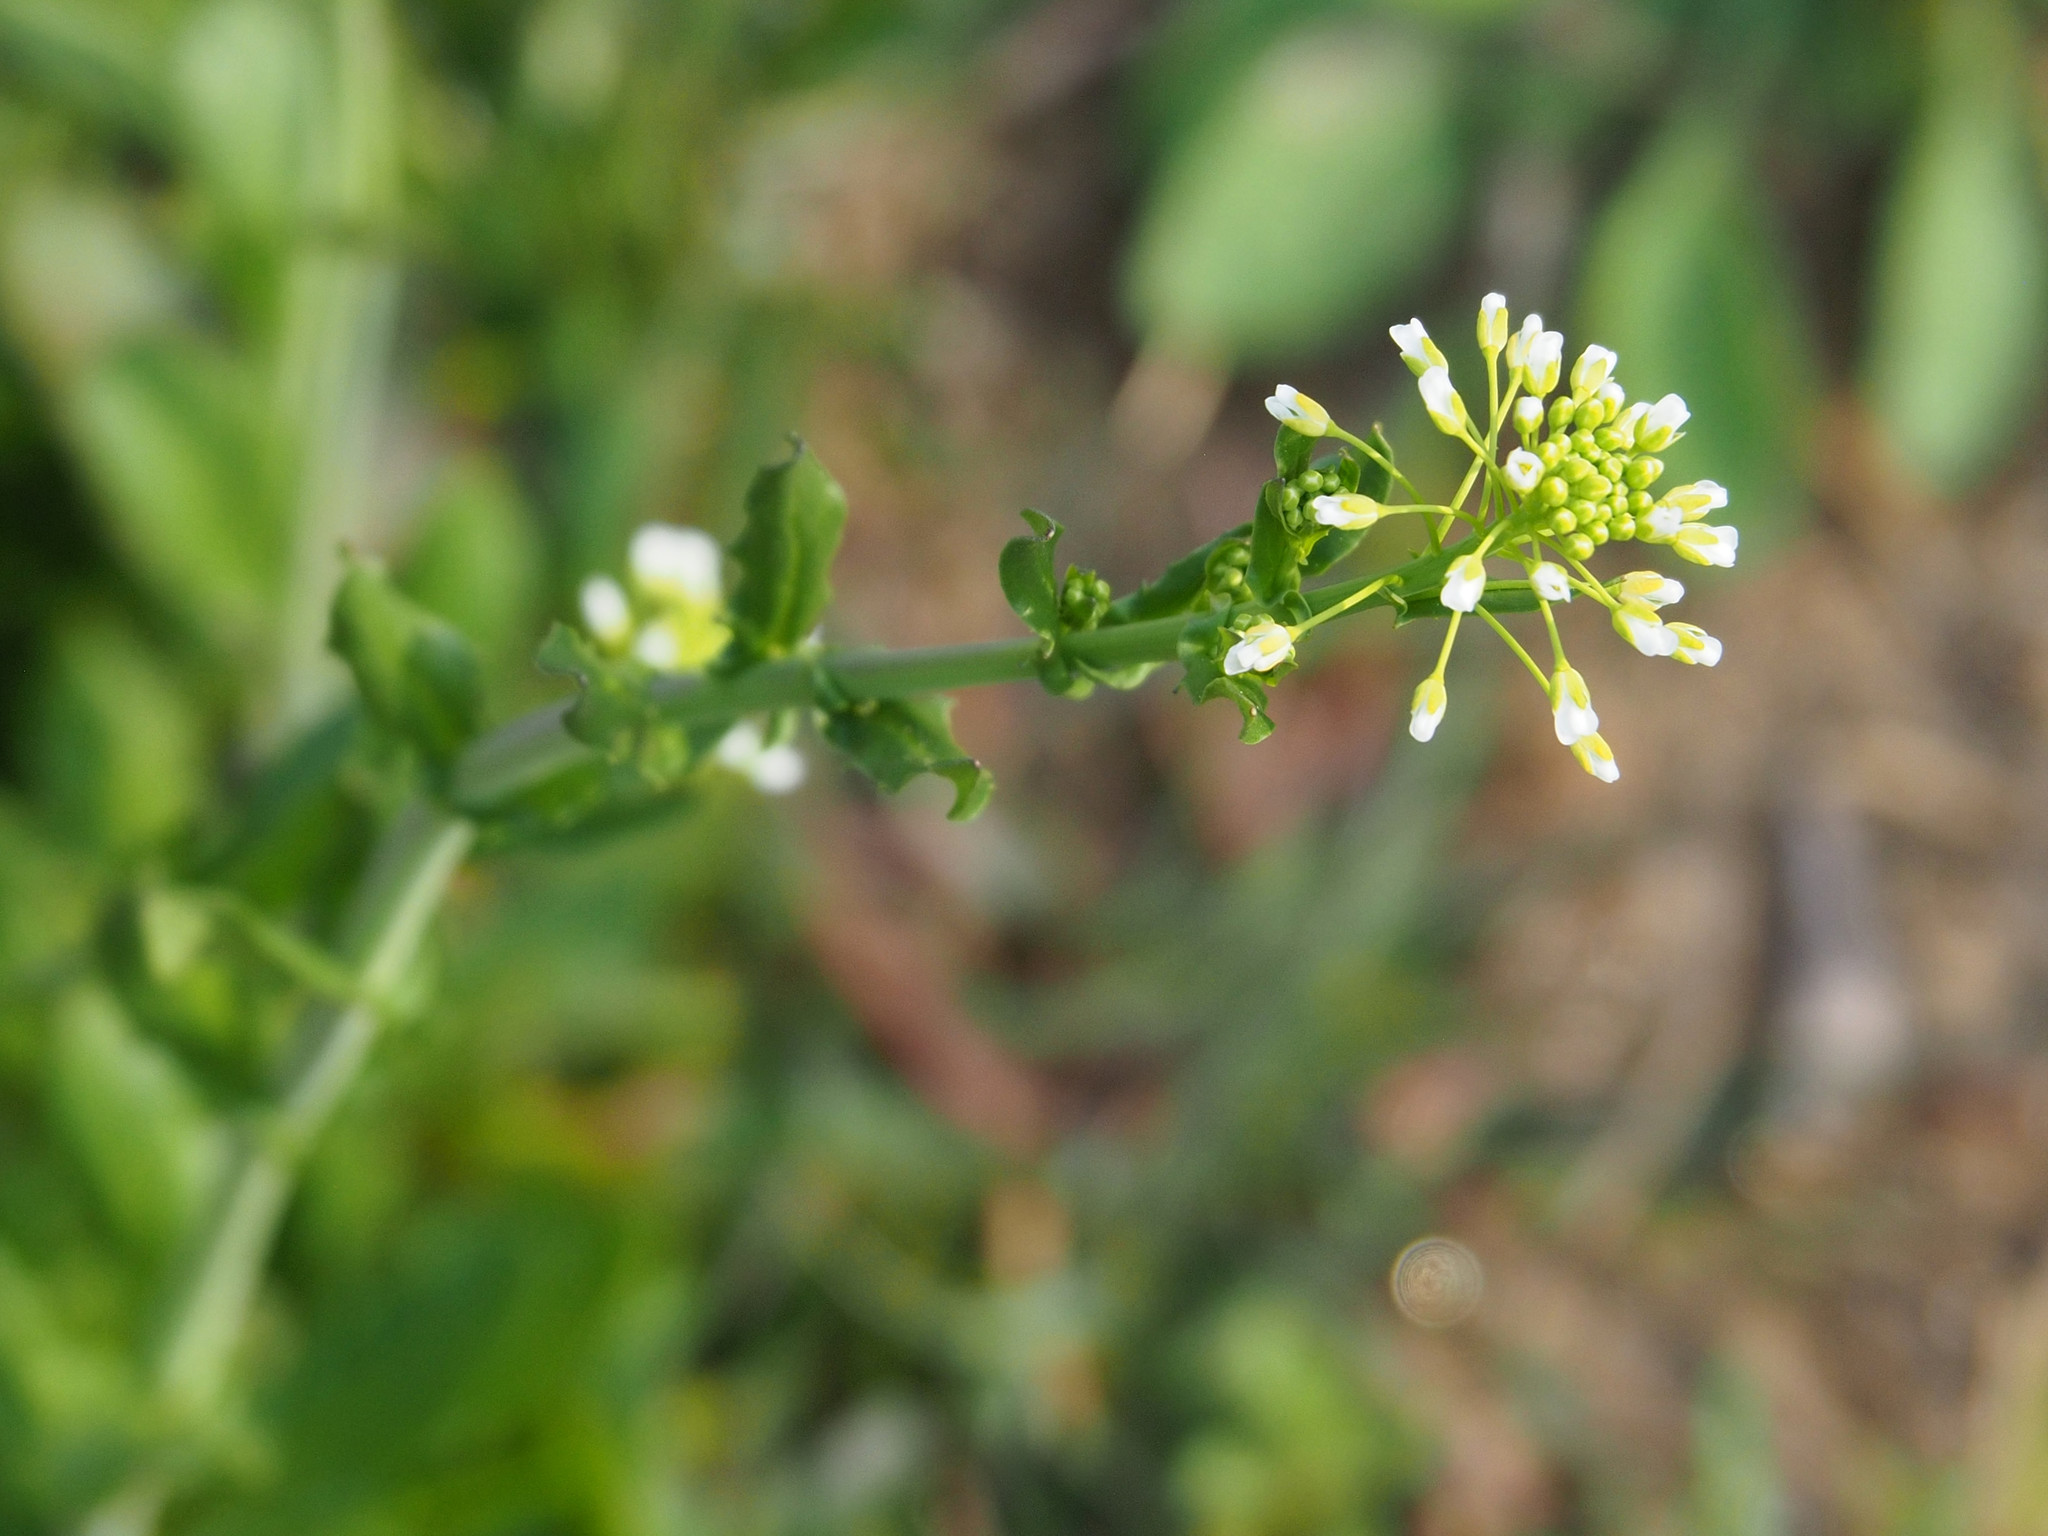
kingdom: Plantae
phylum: Tracheophyta
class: Magnoliopsida
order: Brassicales
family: Brassicaceae
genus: Mummenhoffia
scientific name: Mummenhoffia alliacea
